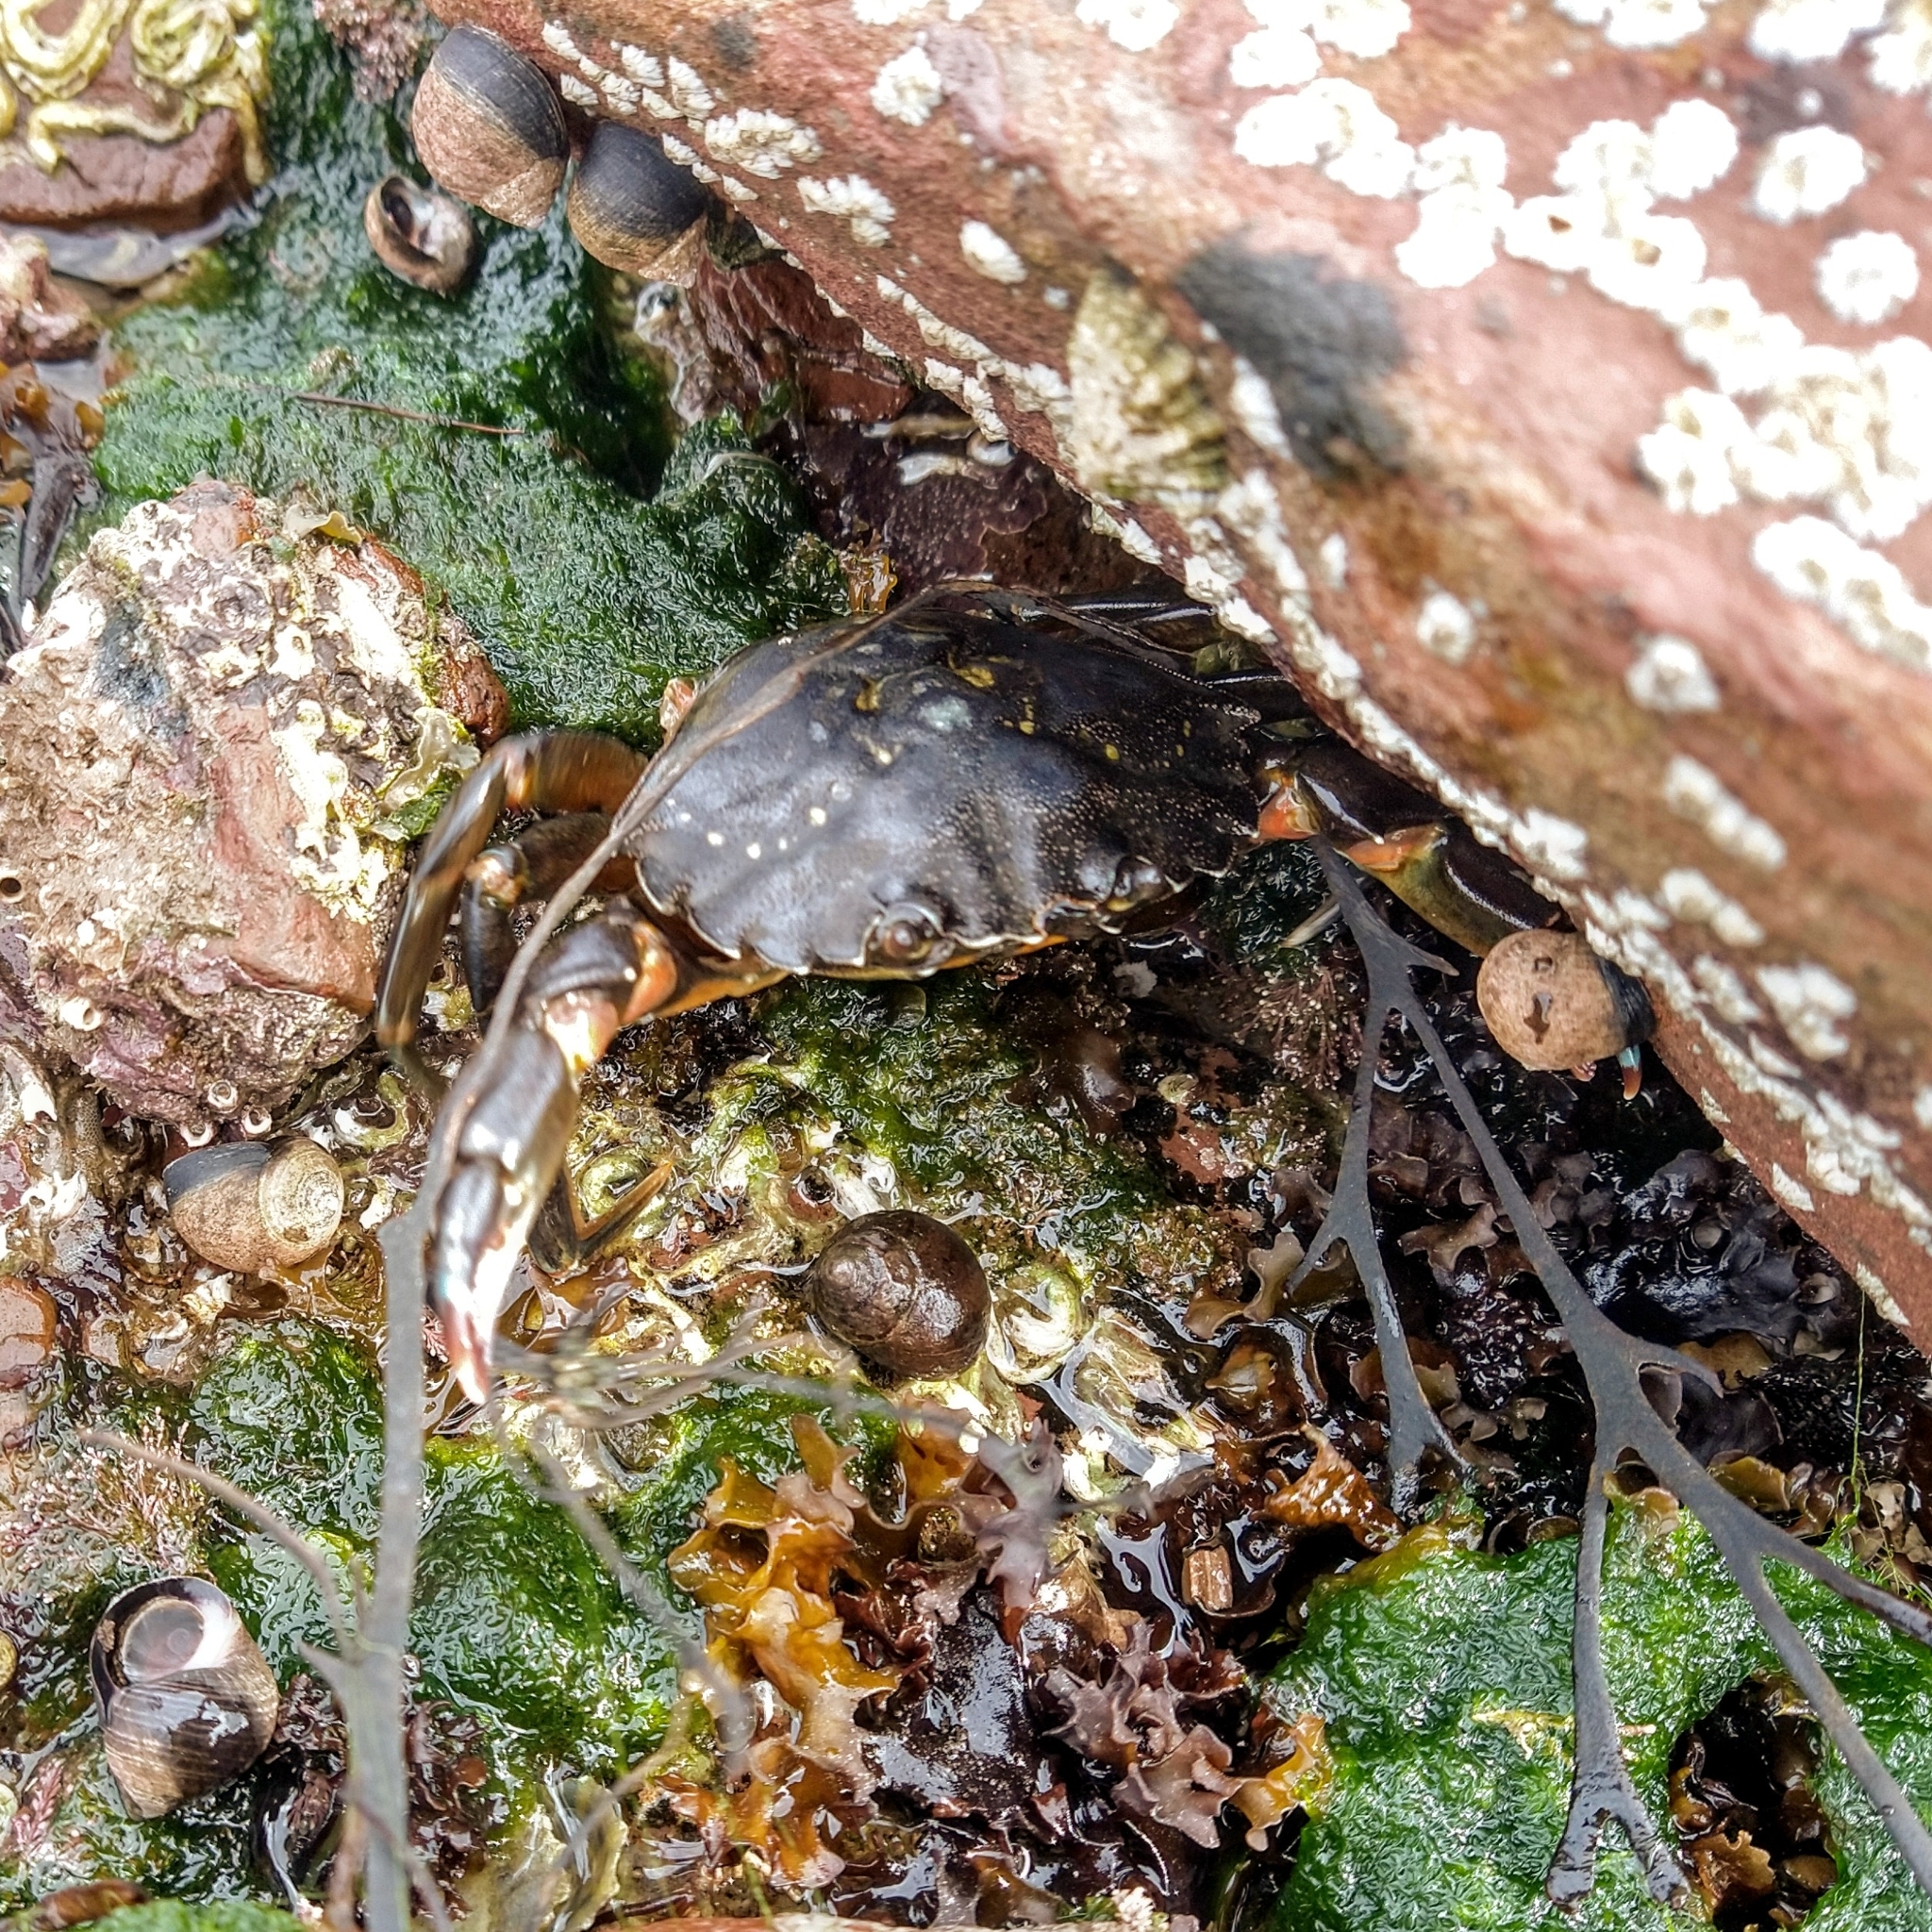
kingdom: Animalia
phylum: Arthropoda
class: Malacostraca
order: Decapoda
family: Carcinidae
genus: Carcinus
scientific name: Carcinus maenas
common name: European green crab
